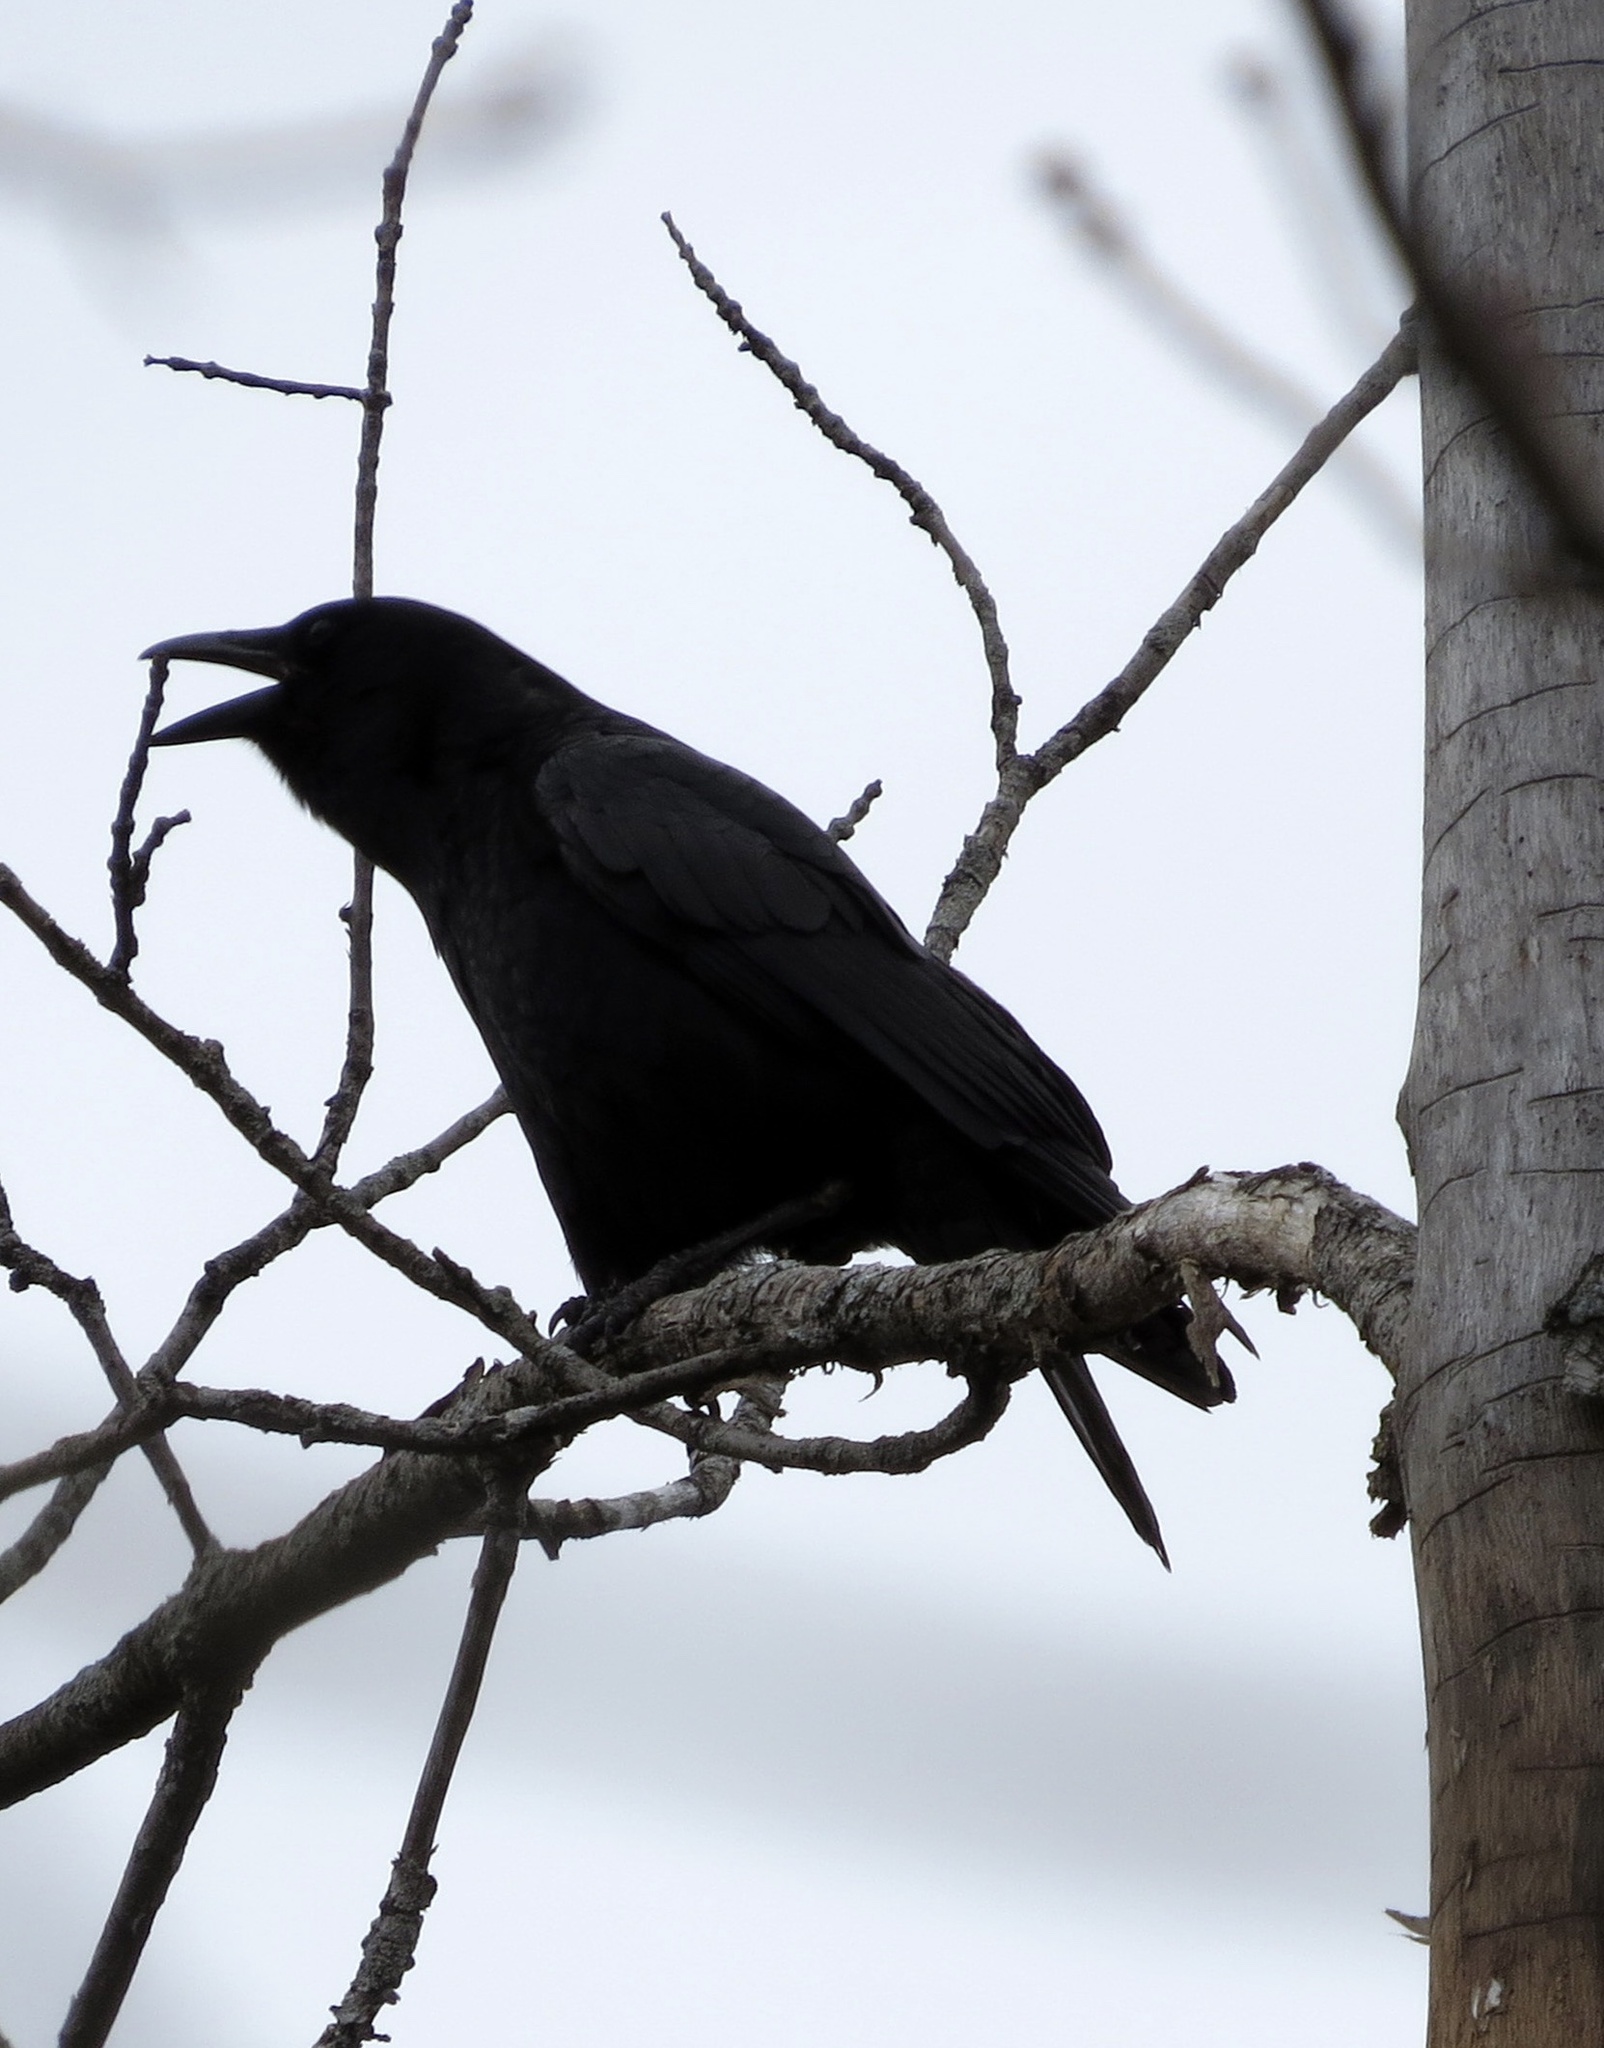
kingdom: Animalia
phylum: Chordata
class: Aves
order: Passeriformes
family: Corvidae
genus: Corvus
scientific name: Corvus brachyrhynchos
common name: American crow
